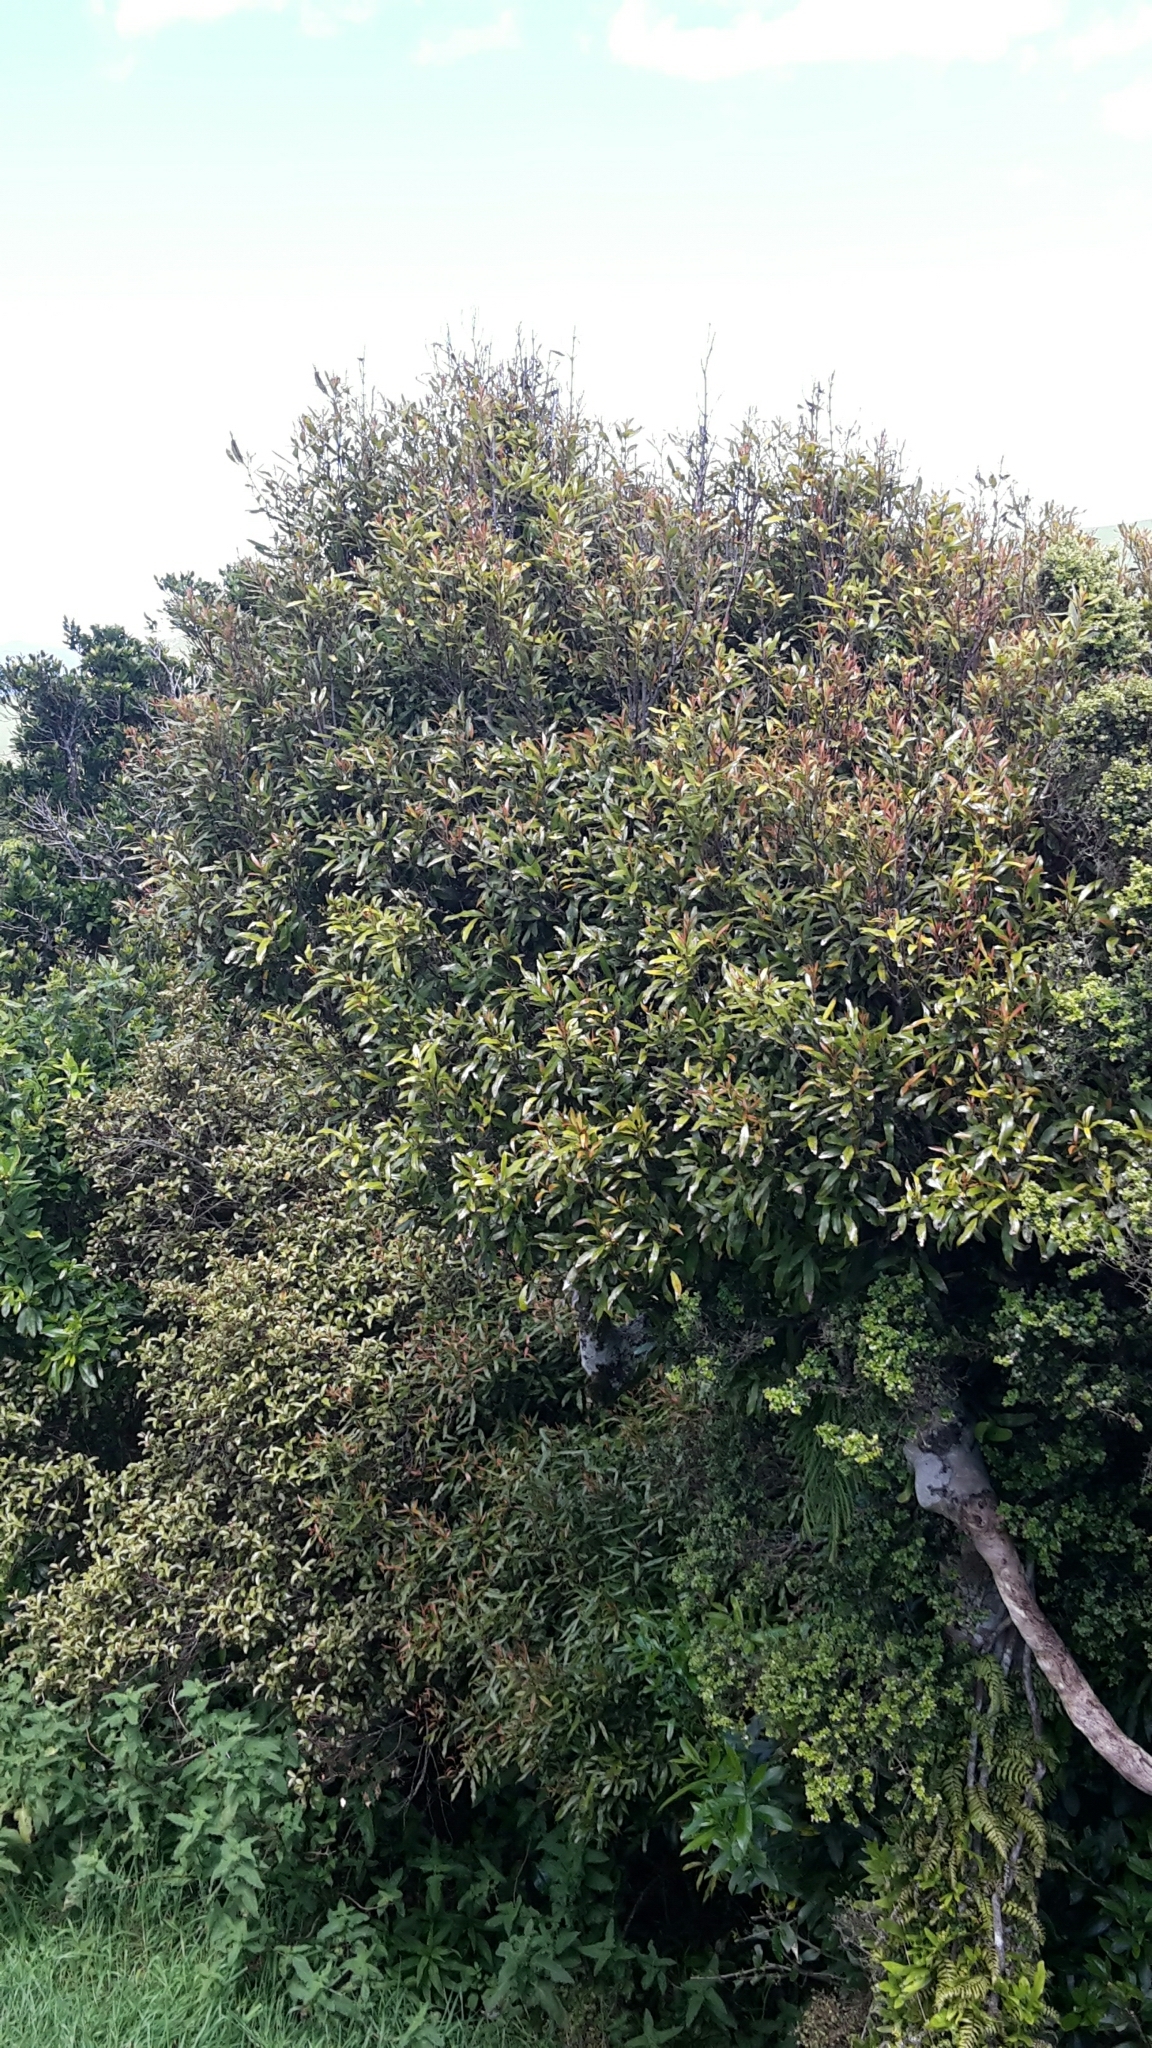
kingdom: Plantae
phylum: Tracheophyta
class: Magnoliopsida
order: Laurales
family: Lauraceae
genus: Beilschmiedia
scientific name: Beilschmiedia tawa
